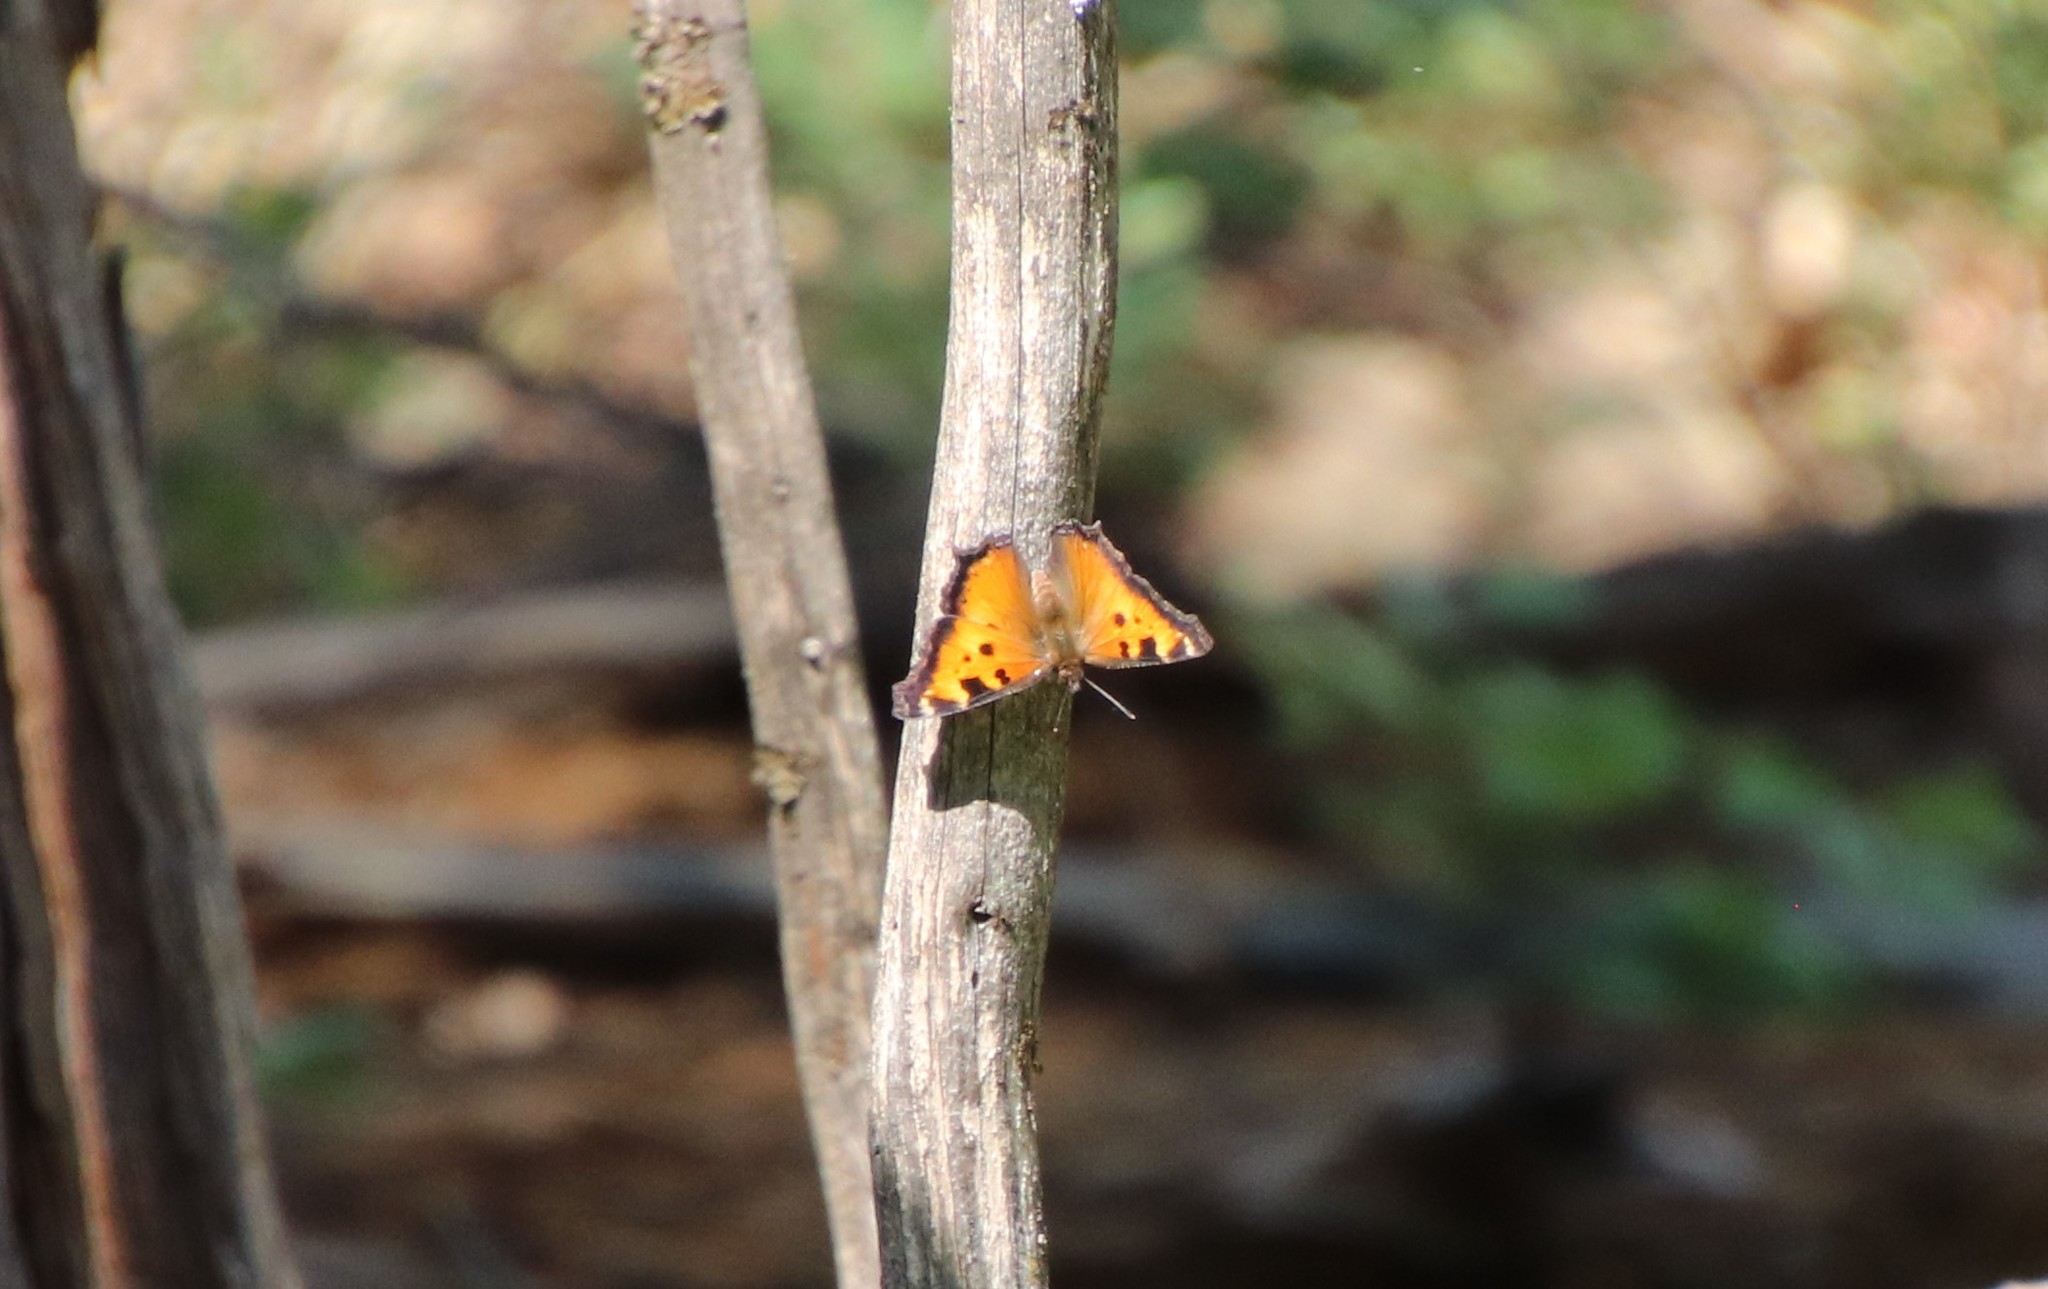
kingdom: Animalia
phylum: Arthropoda
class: Insecta
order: Lepidoptera
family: Nymphalidae
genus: Nymphalis
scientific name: Nymphalis californica
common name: California tortoiseshell
